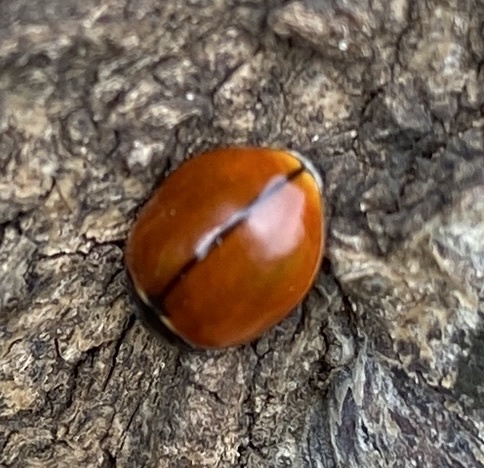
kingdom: Animalia
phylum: Arthropoda
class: Insecta
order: Coleoptera
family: Coccinellidae
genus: Coccinella
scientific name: Coccinella californica
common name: Lady beetle
